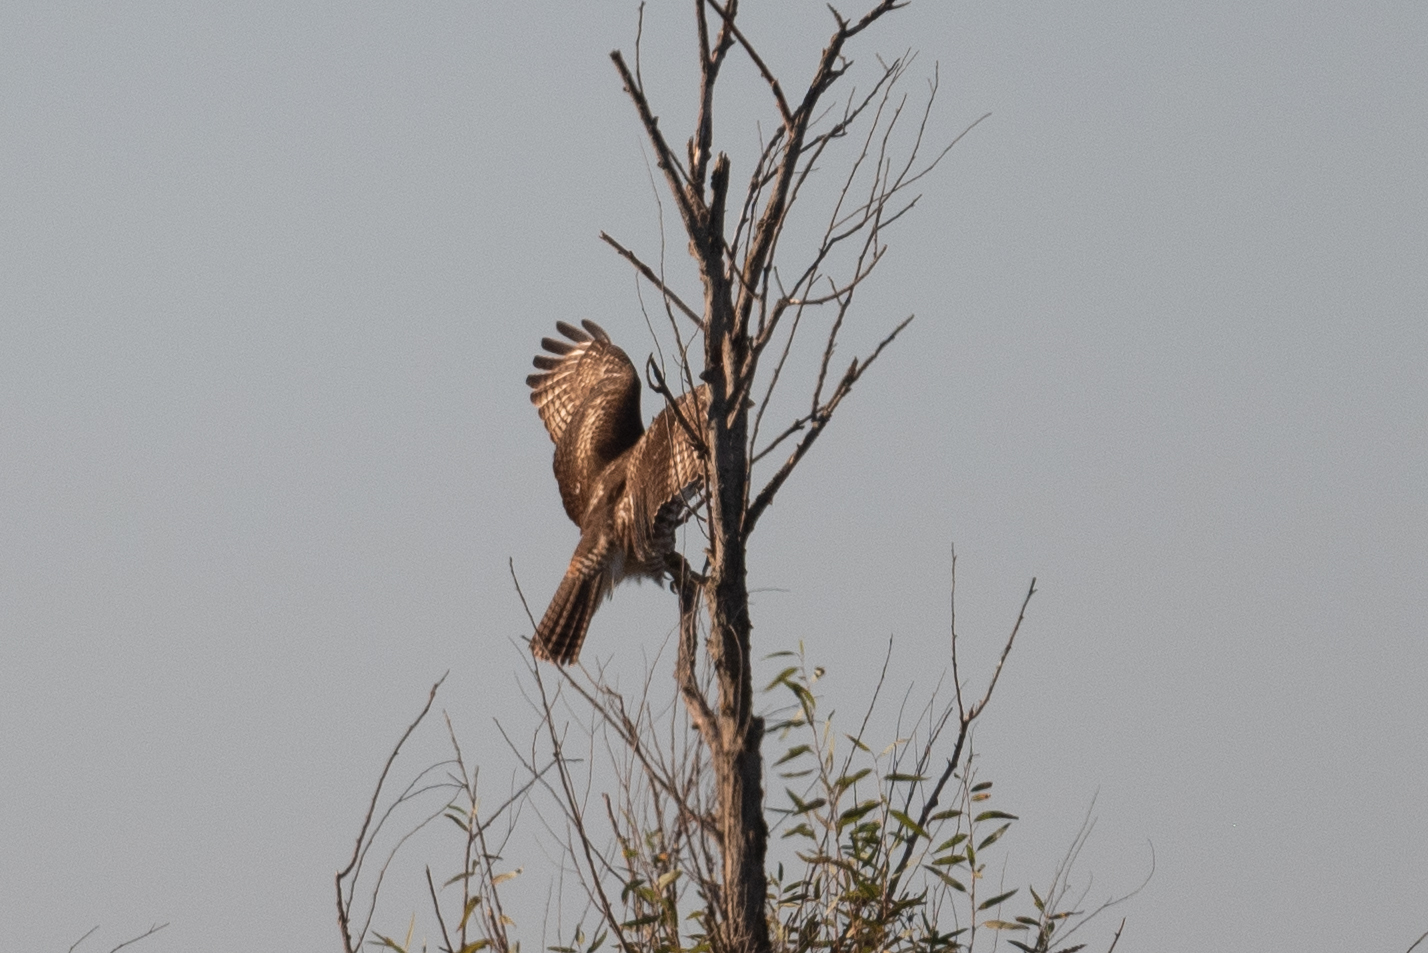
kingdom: Animalia
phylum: Chordata
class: Aves
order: Accipitriformes
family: Accipitridae
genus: Buteo
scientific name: Buteo jamaicensis
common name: Red-tailed hawk
